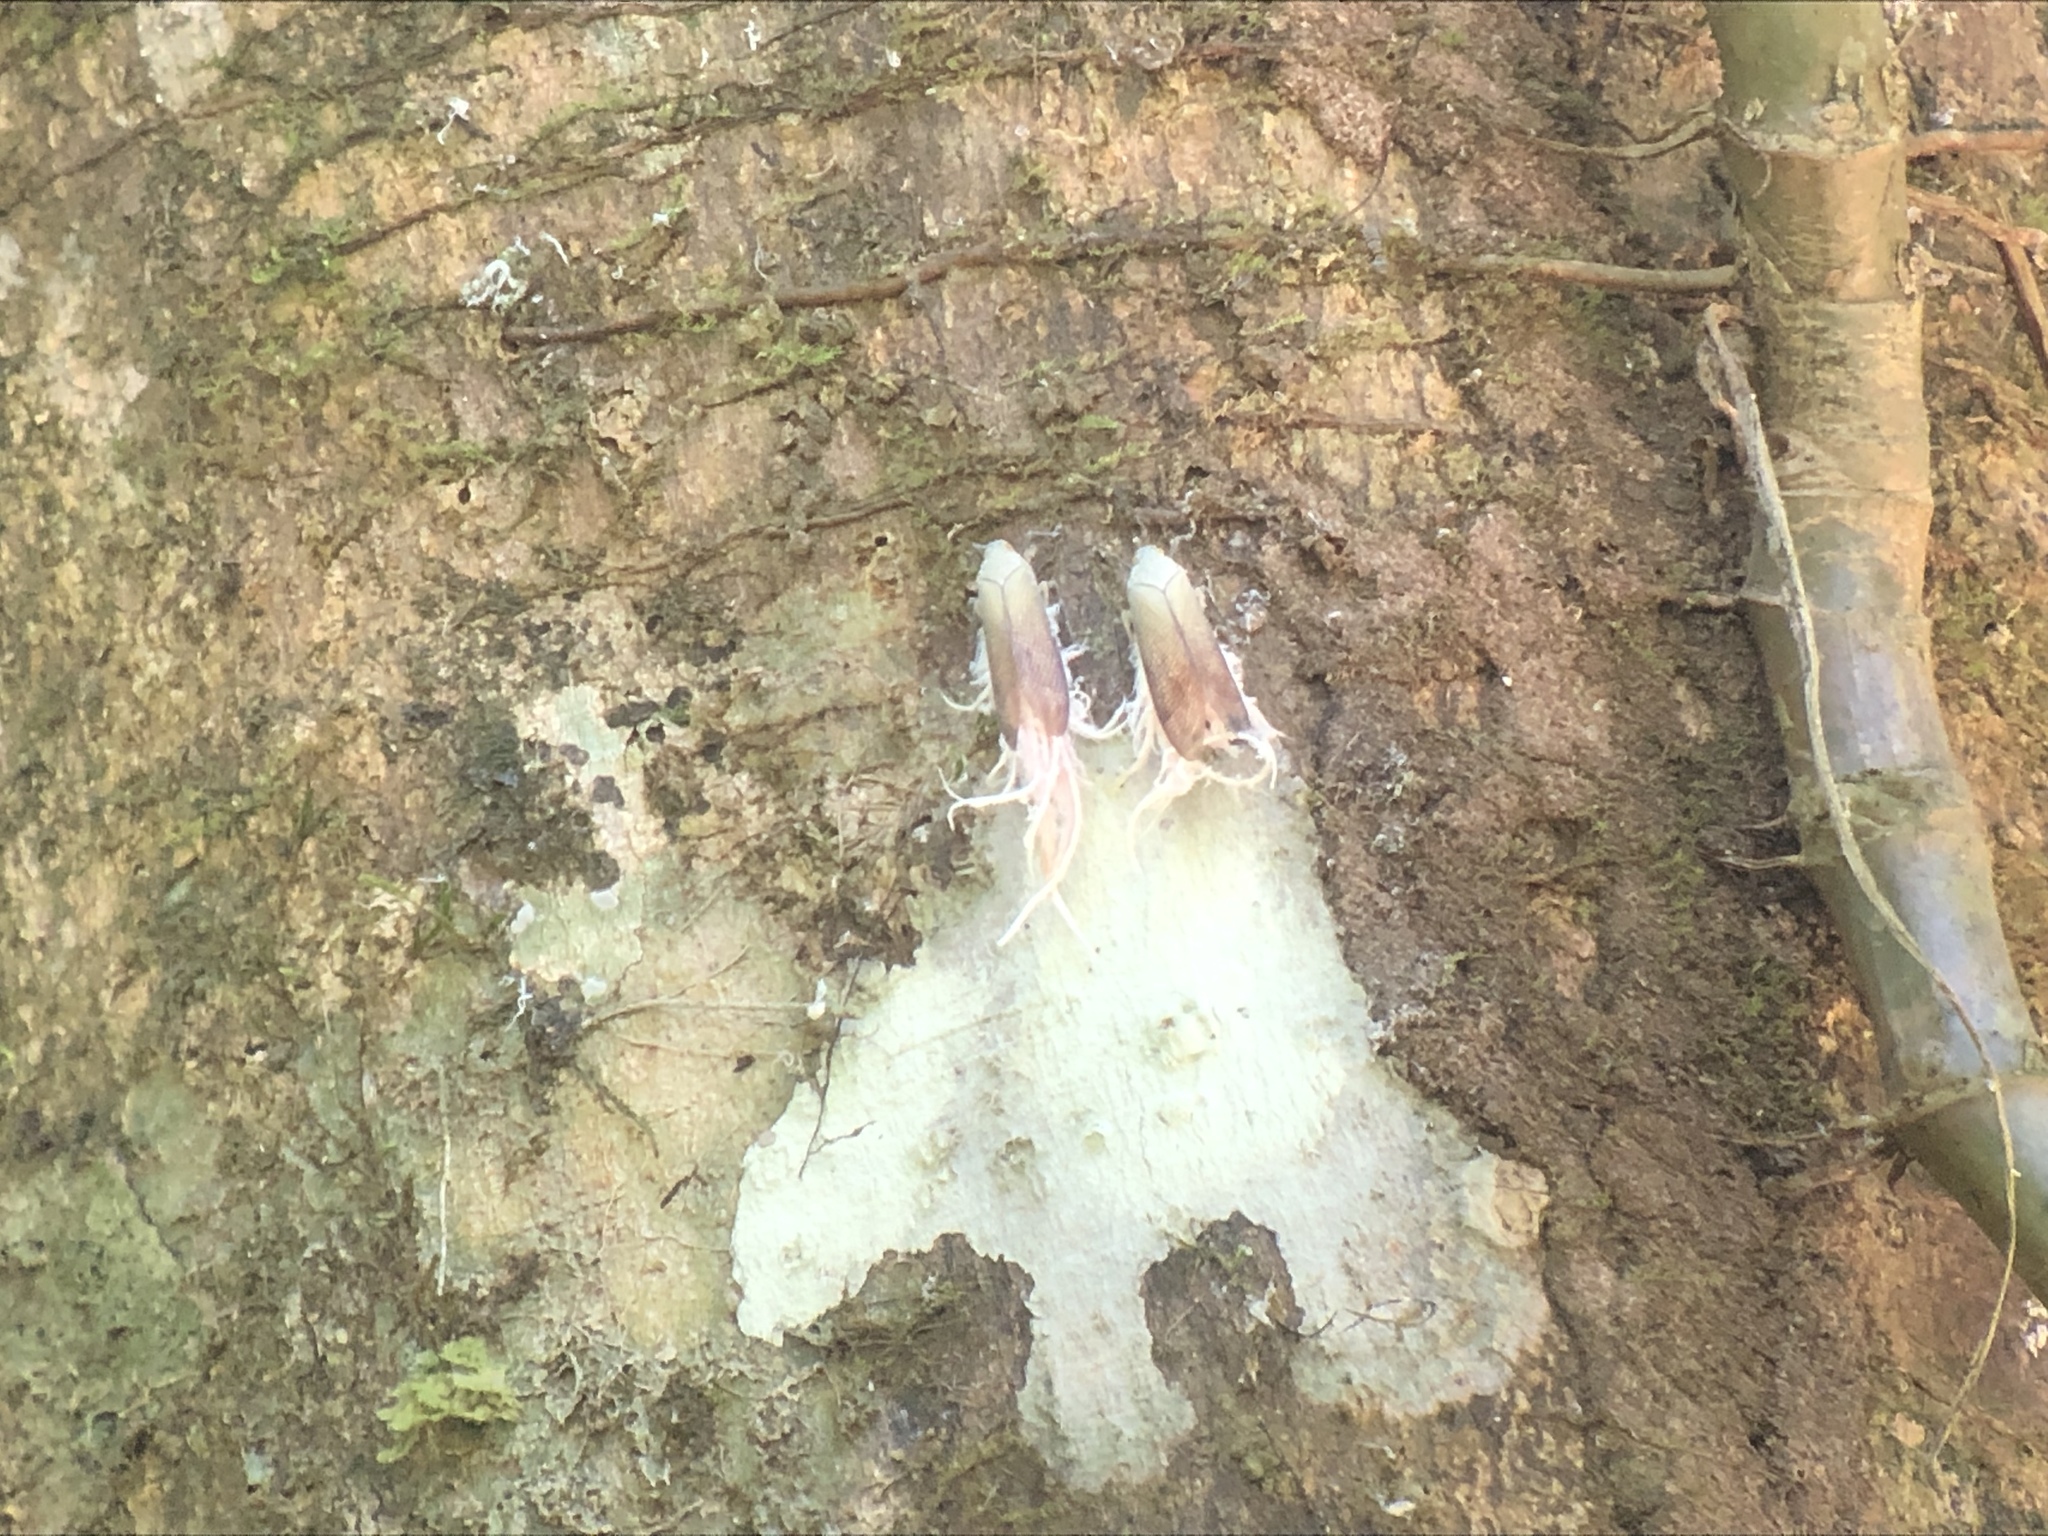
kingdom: Animalia
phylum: Arthropoda
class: Insecta
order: Hemiptera
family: Fulgoridae
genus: Pterodictya
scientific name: Pterodictya reticularis
